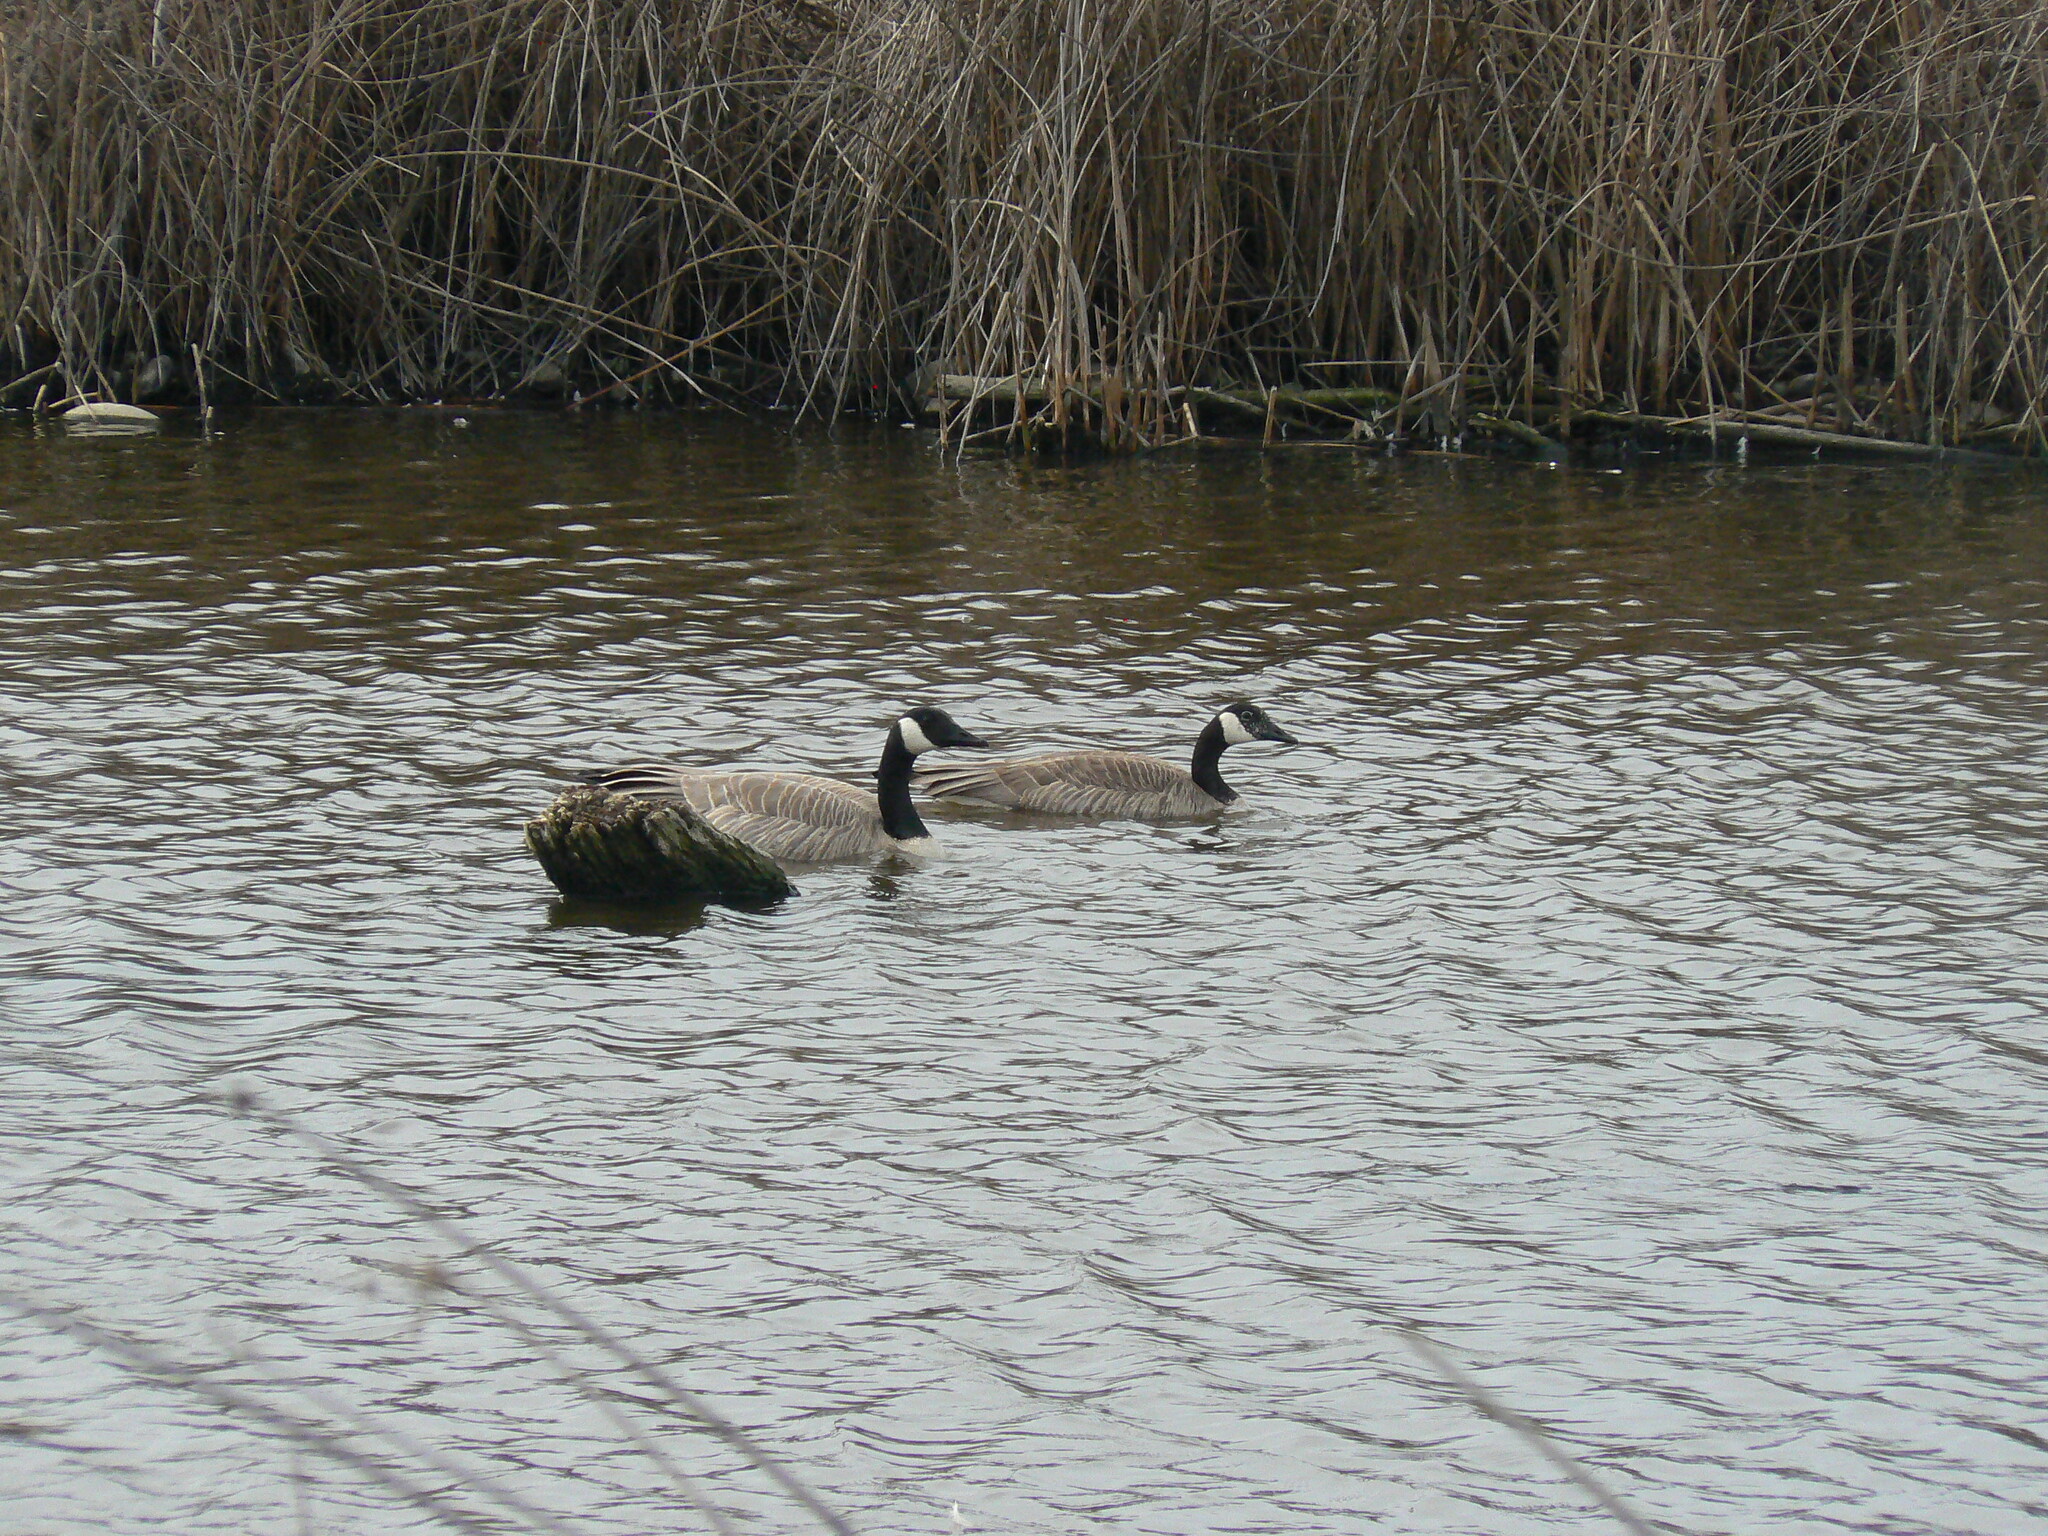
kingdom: Animalia
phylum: Chordata
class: Aves
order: Anseriformes
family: Anatidae
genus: Branta
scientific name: Branta canadensis
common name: Canada goose
